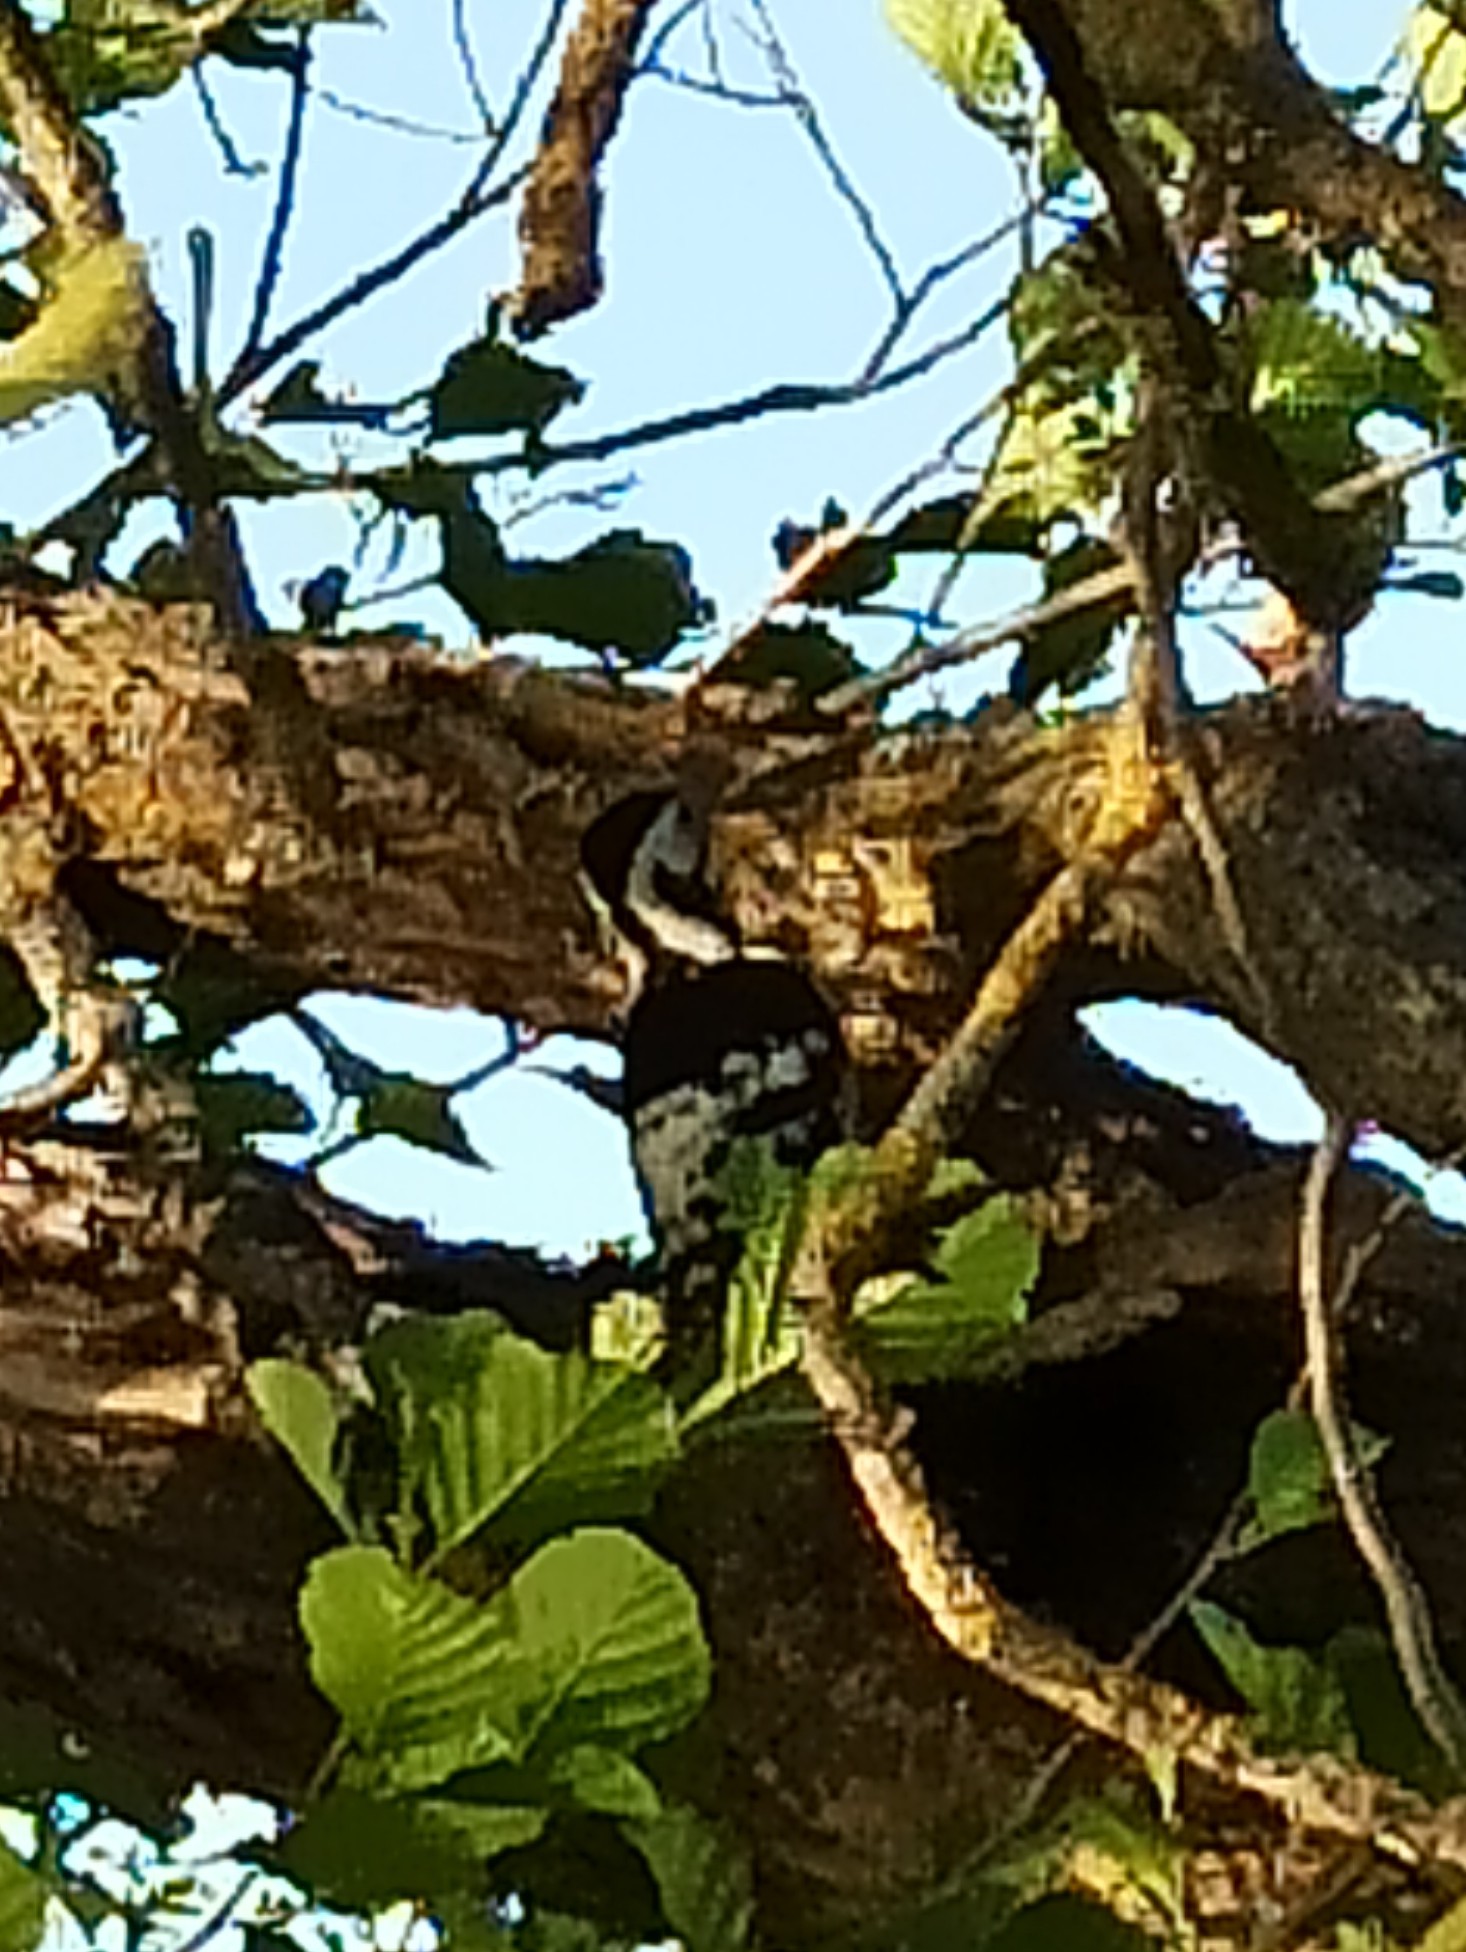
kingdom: Animalia
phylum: Chordata
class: Aves
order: Piciformes
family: Picidae
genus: Dendrocopos
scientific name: Dendrocopos leucotos
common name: White-backed woodpecker
